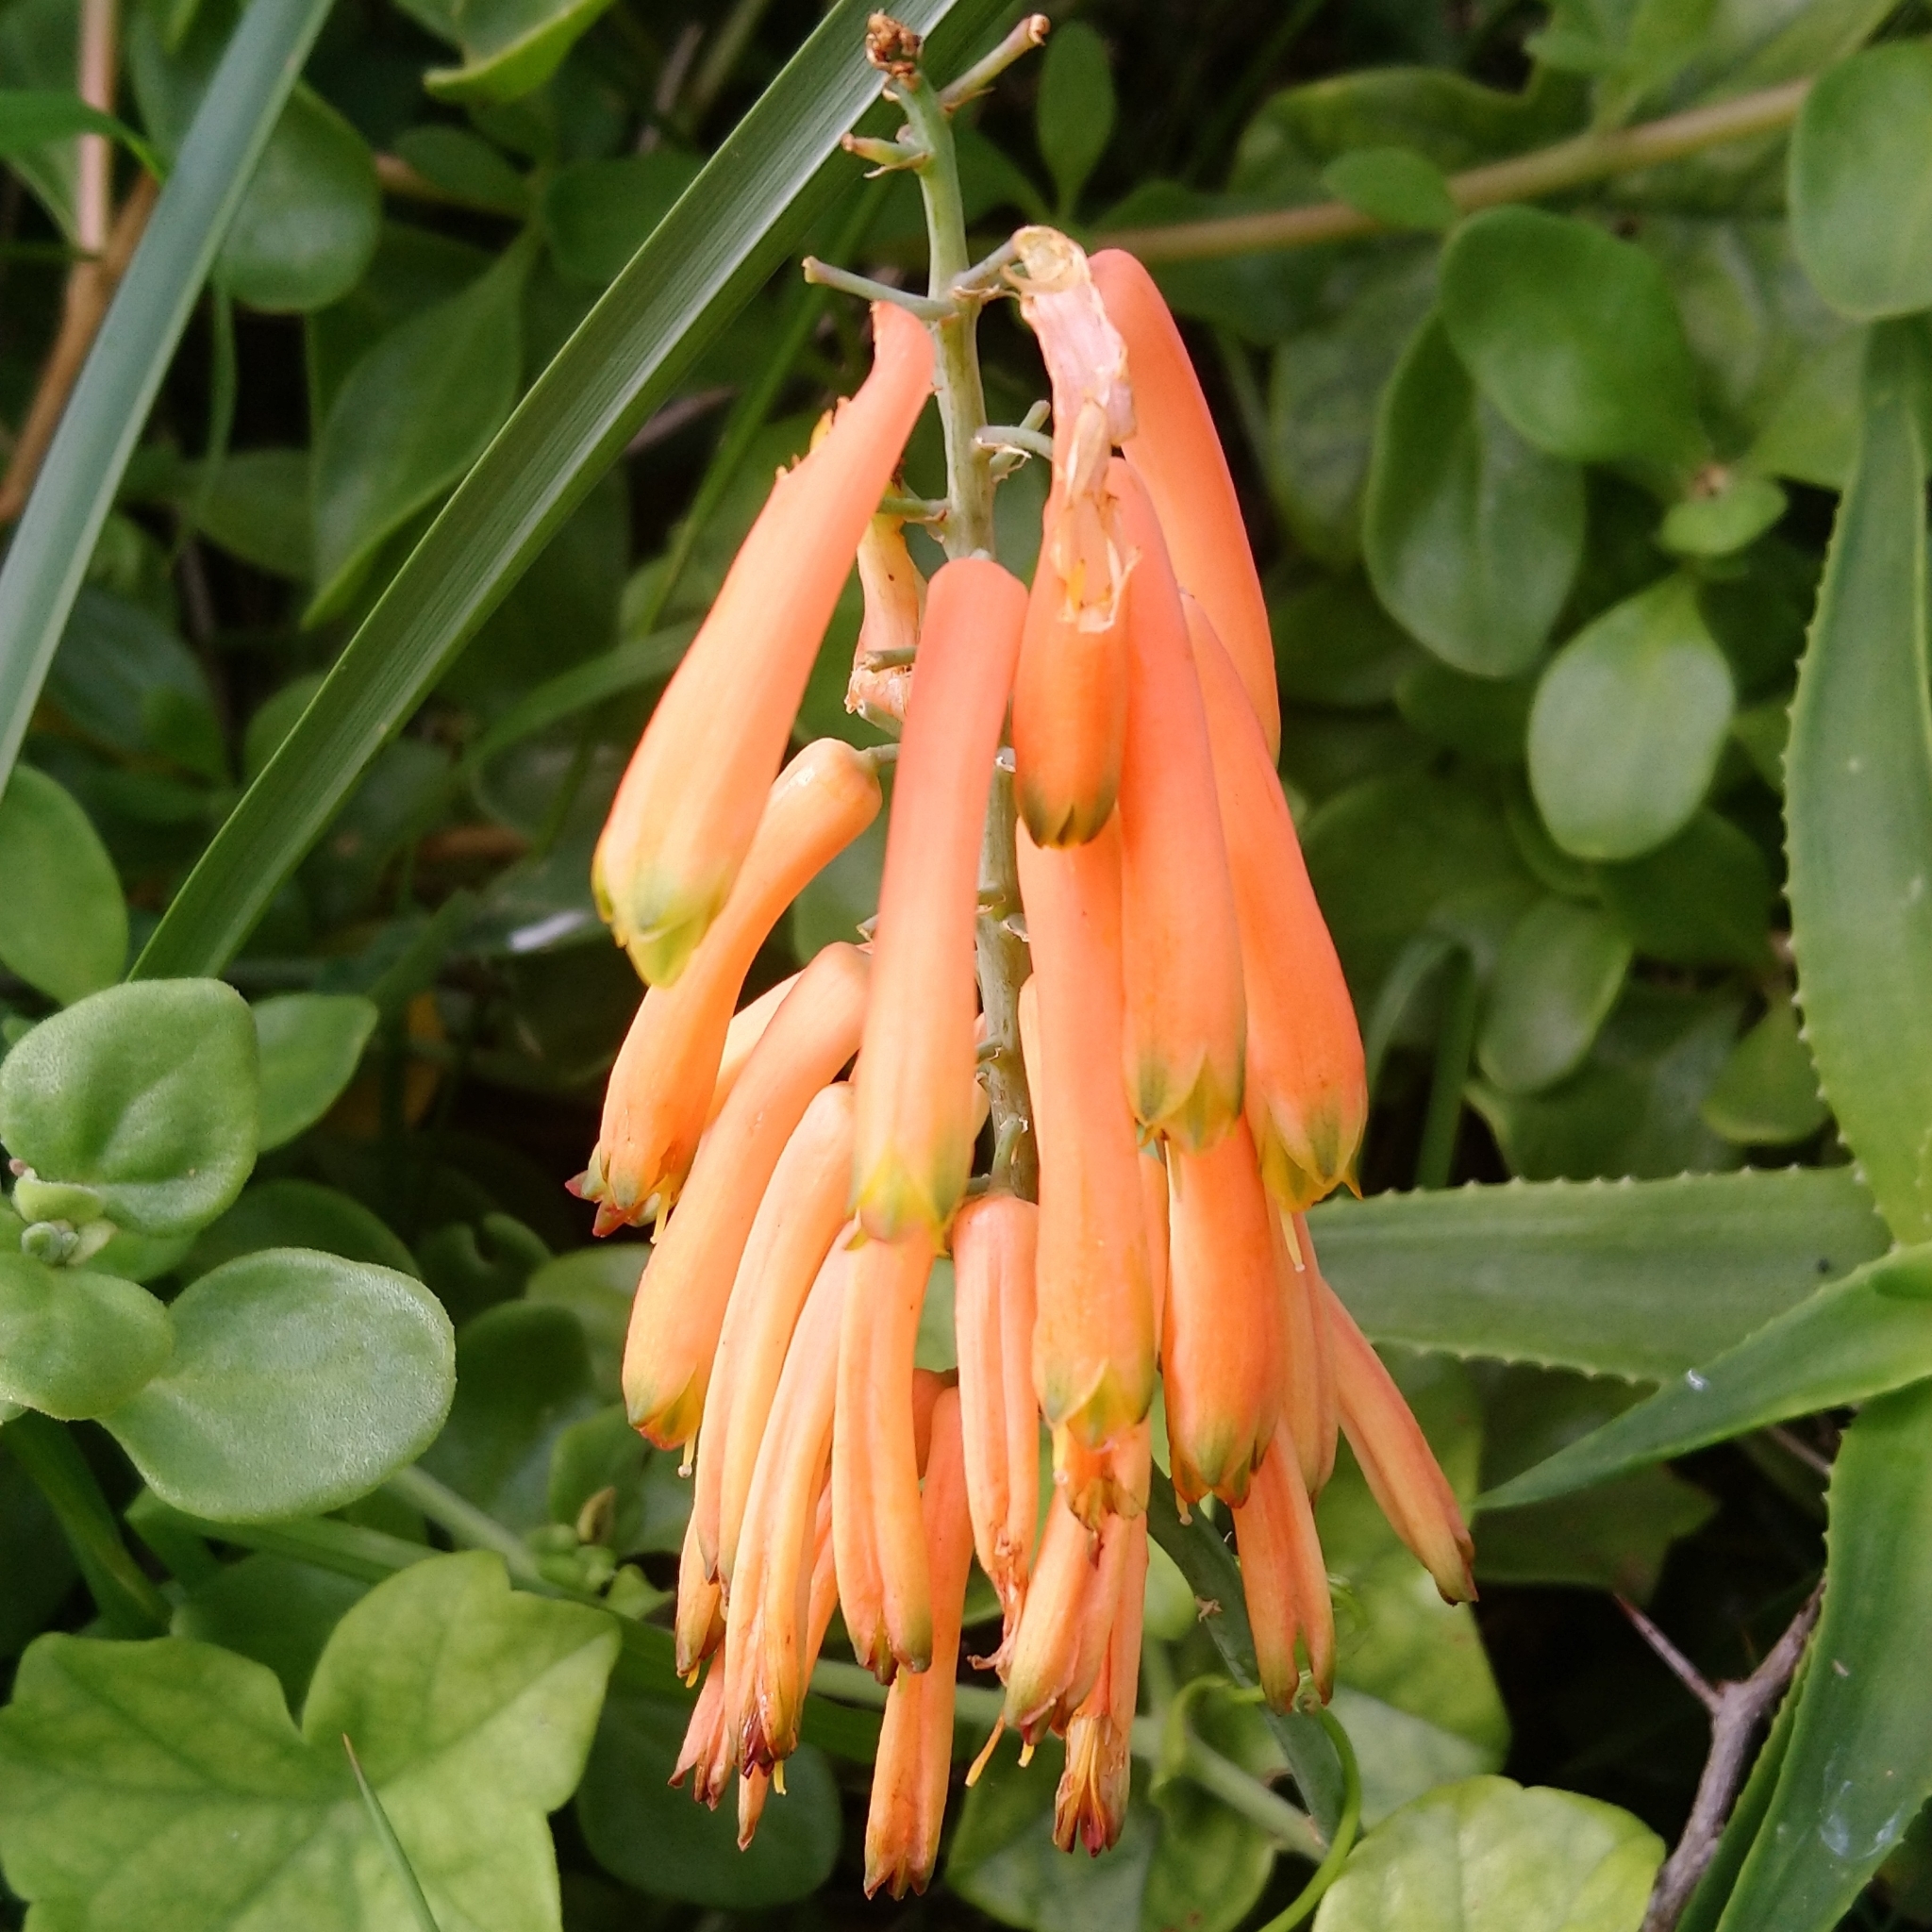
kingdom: Plantae
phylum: Tracheophyta
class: Liliopsida
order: Asparagales
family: Asphodelaceae
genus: Aloiampelos
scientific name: Aloiampelos ciliaris
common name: Climbing aloe
